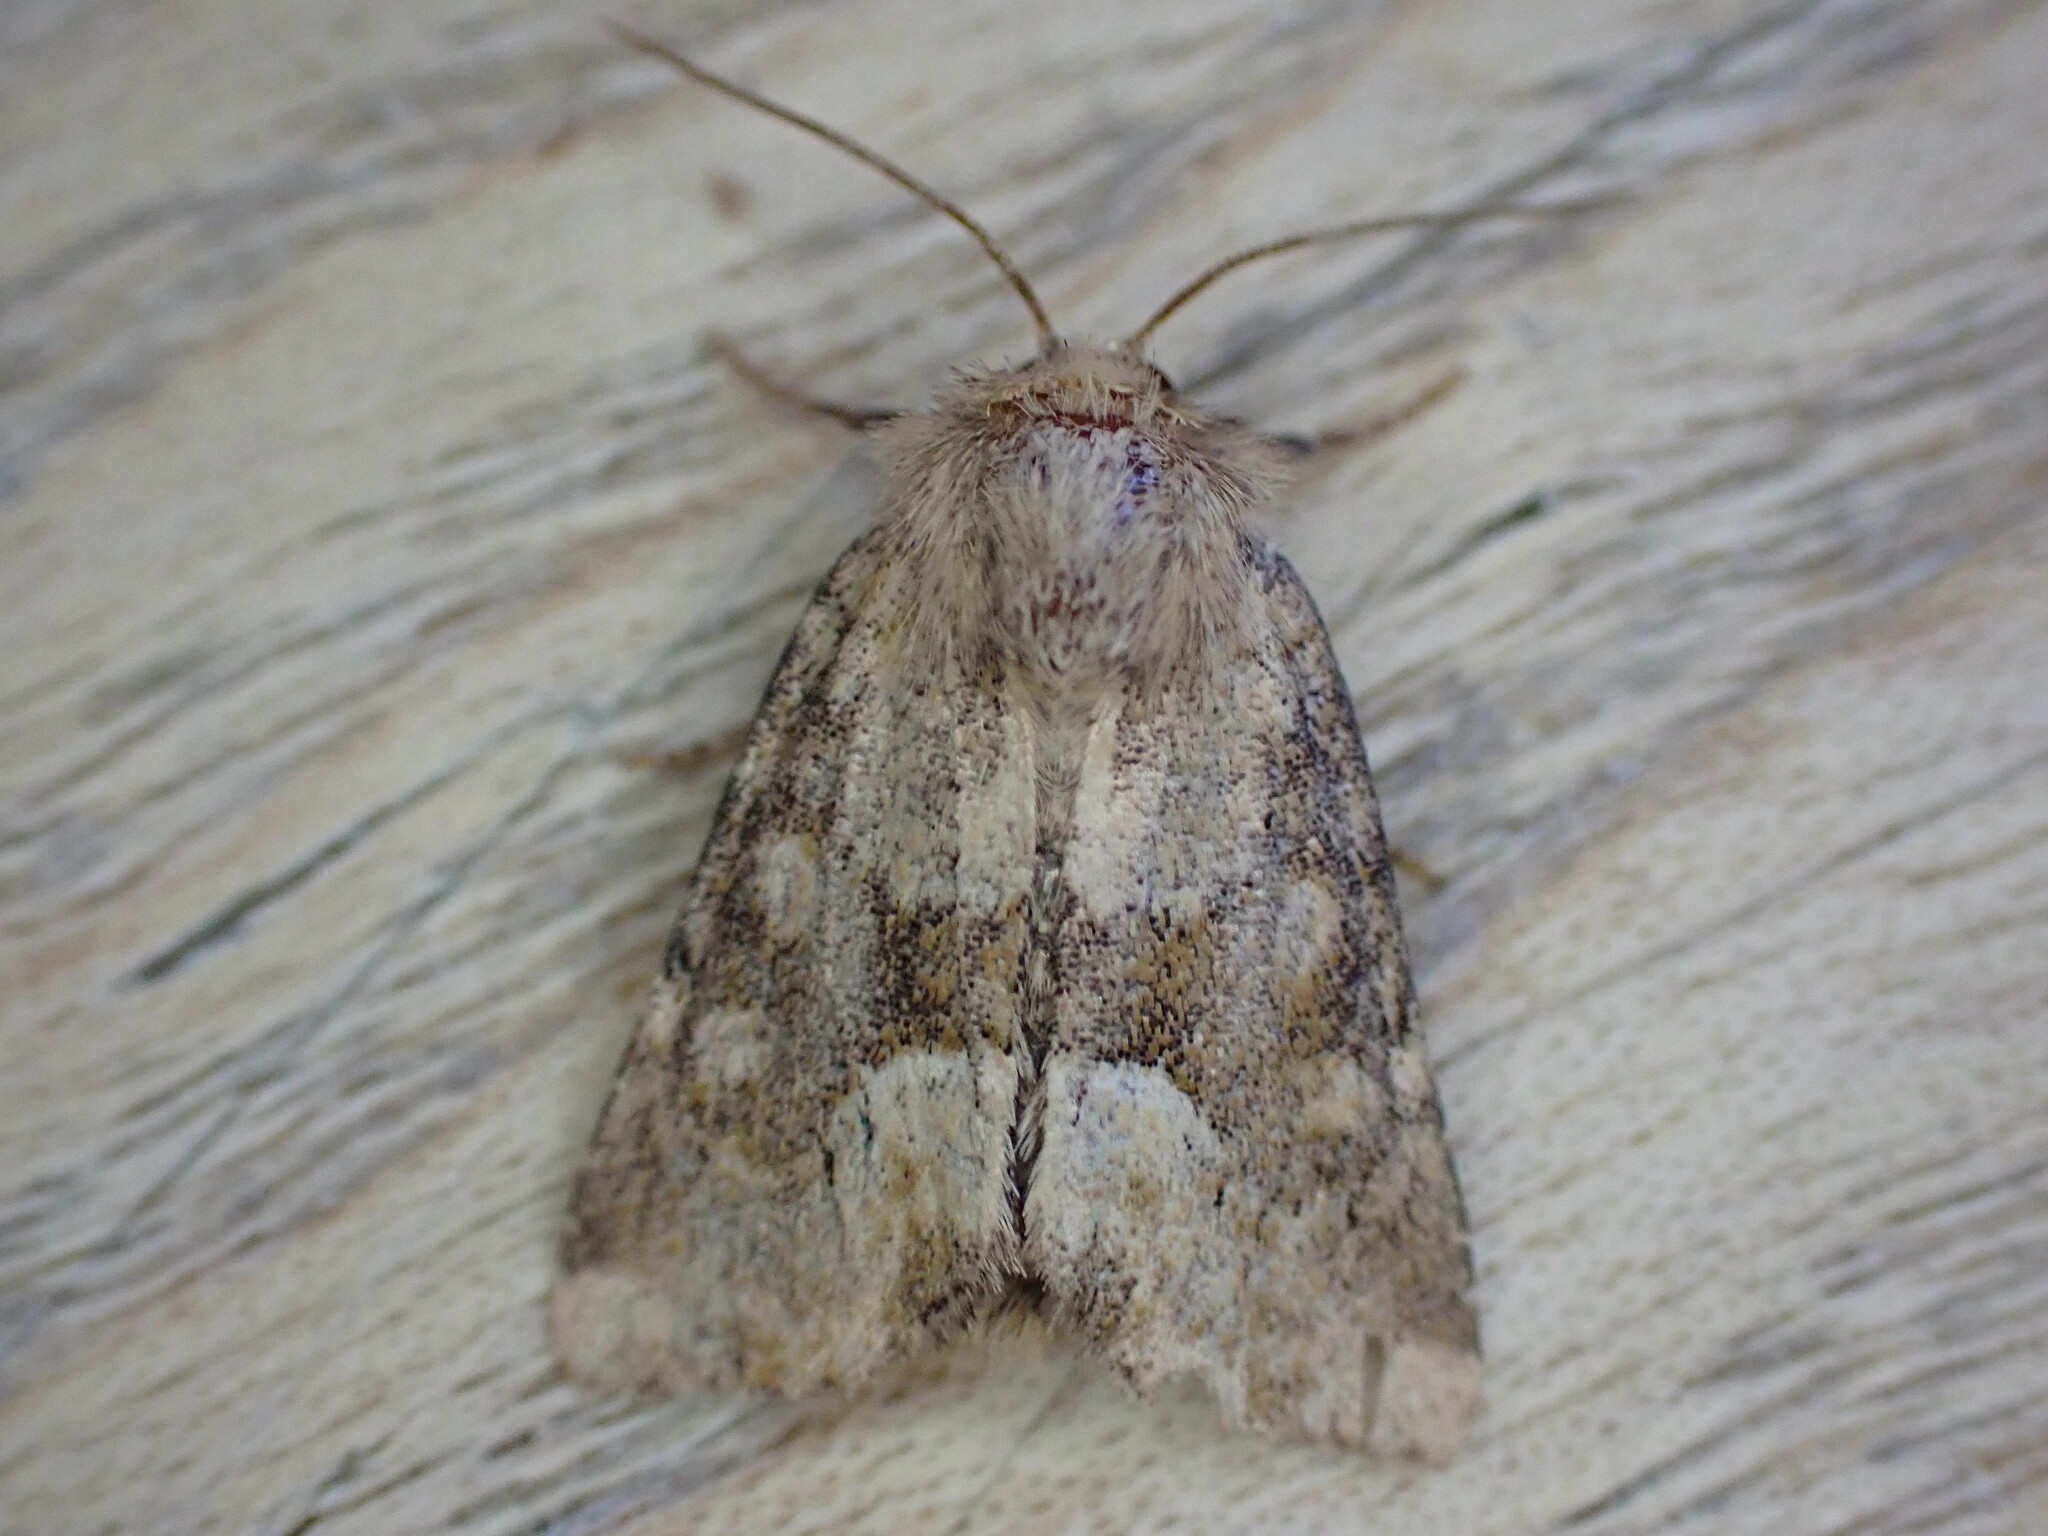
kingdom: Animalia
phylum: Arthropoda
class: Insecta
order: Lepidoptera
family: Noctuidae
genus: Oligia
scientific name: Oligia fasciuncula
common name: Middle-barred minor
